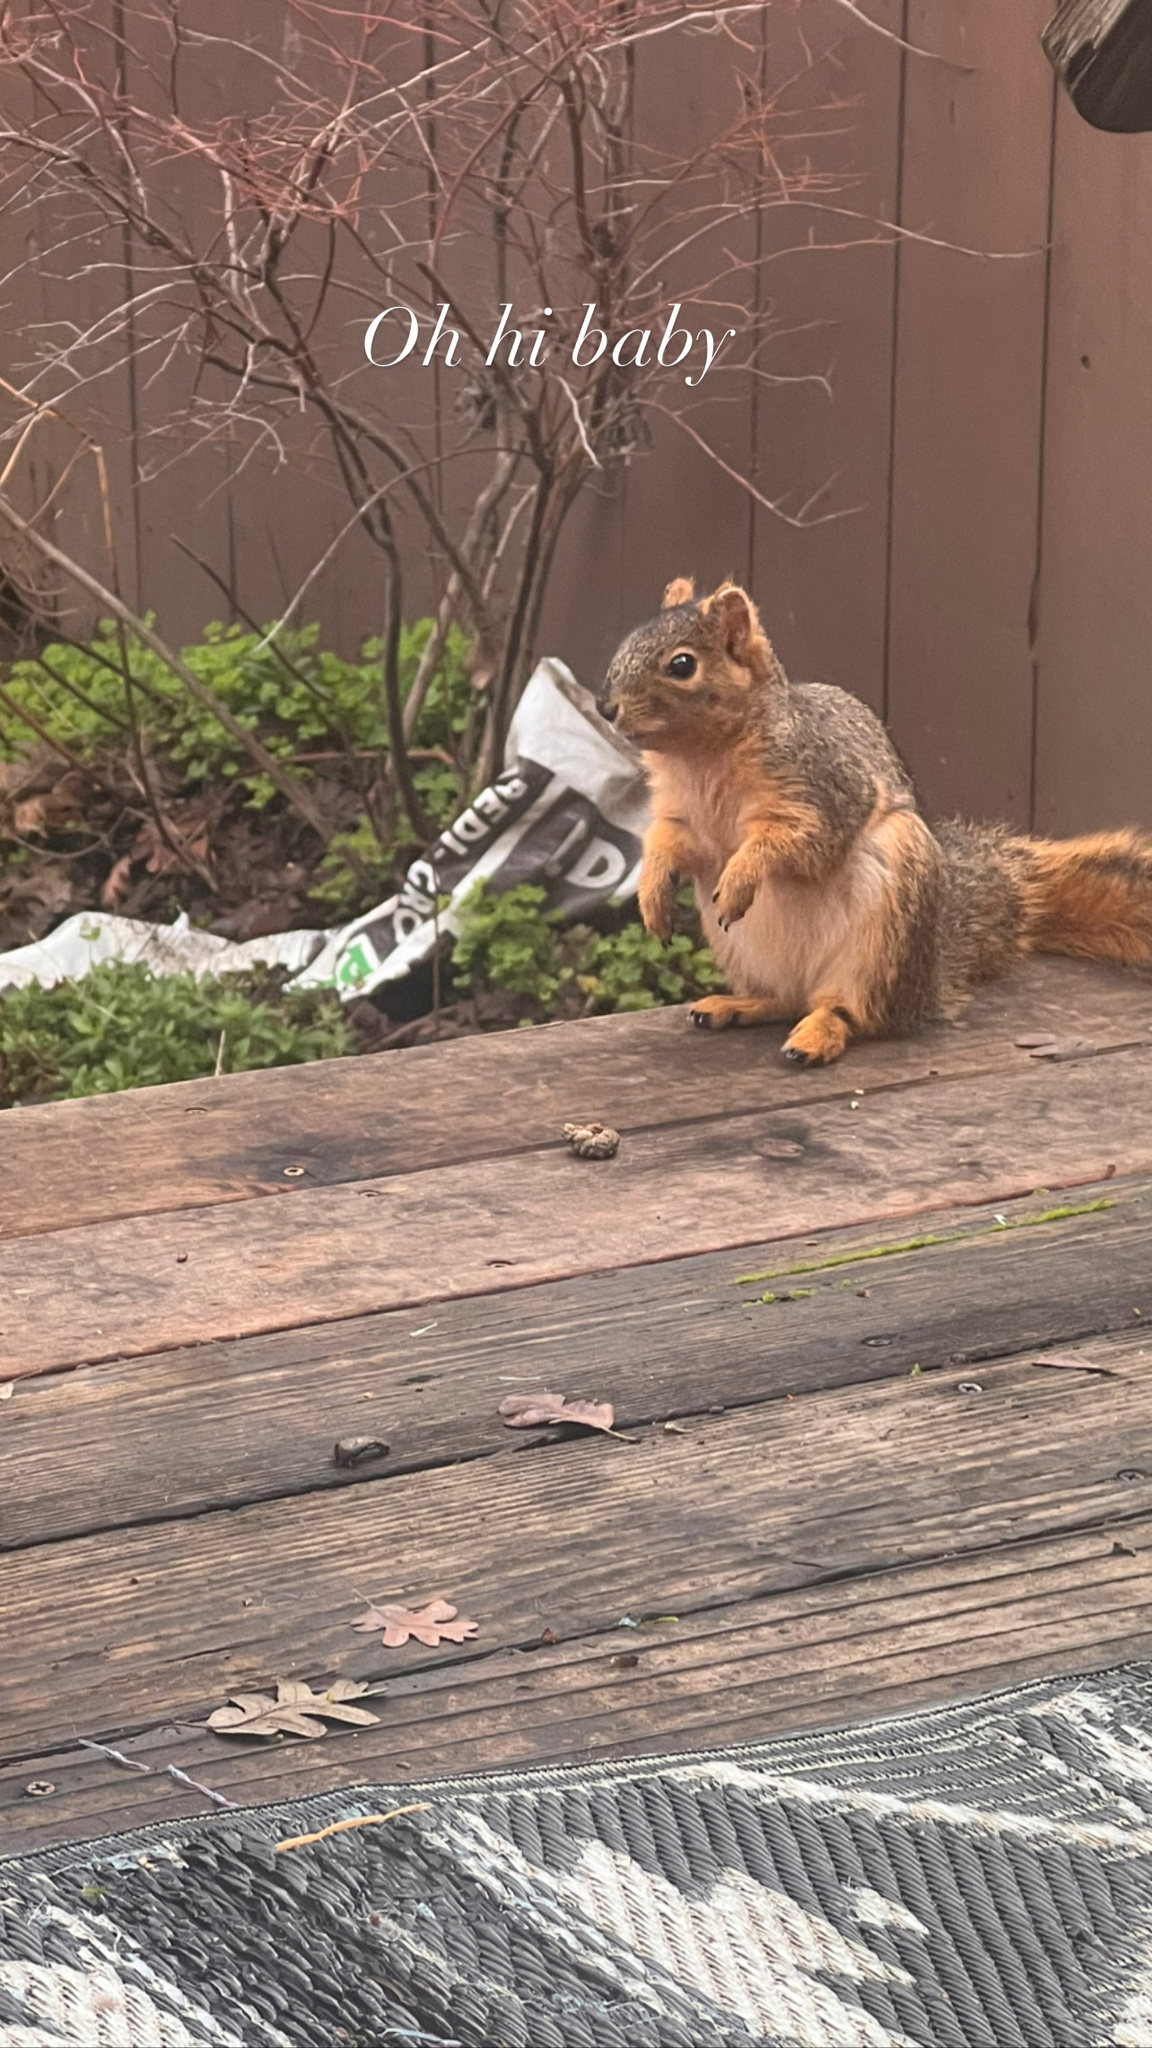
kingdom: Animalia
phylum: Chordata
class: Mammalia
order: Rodentia
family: Sciuridae
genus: Sciurus
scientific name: Sciurus niger
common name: Fox squirrel
